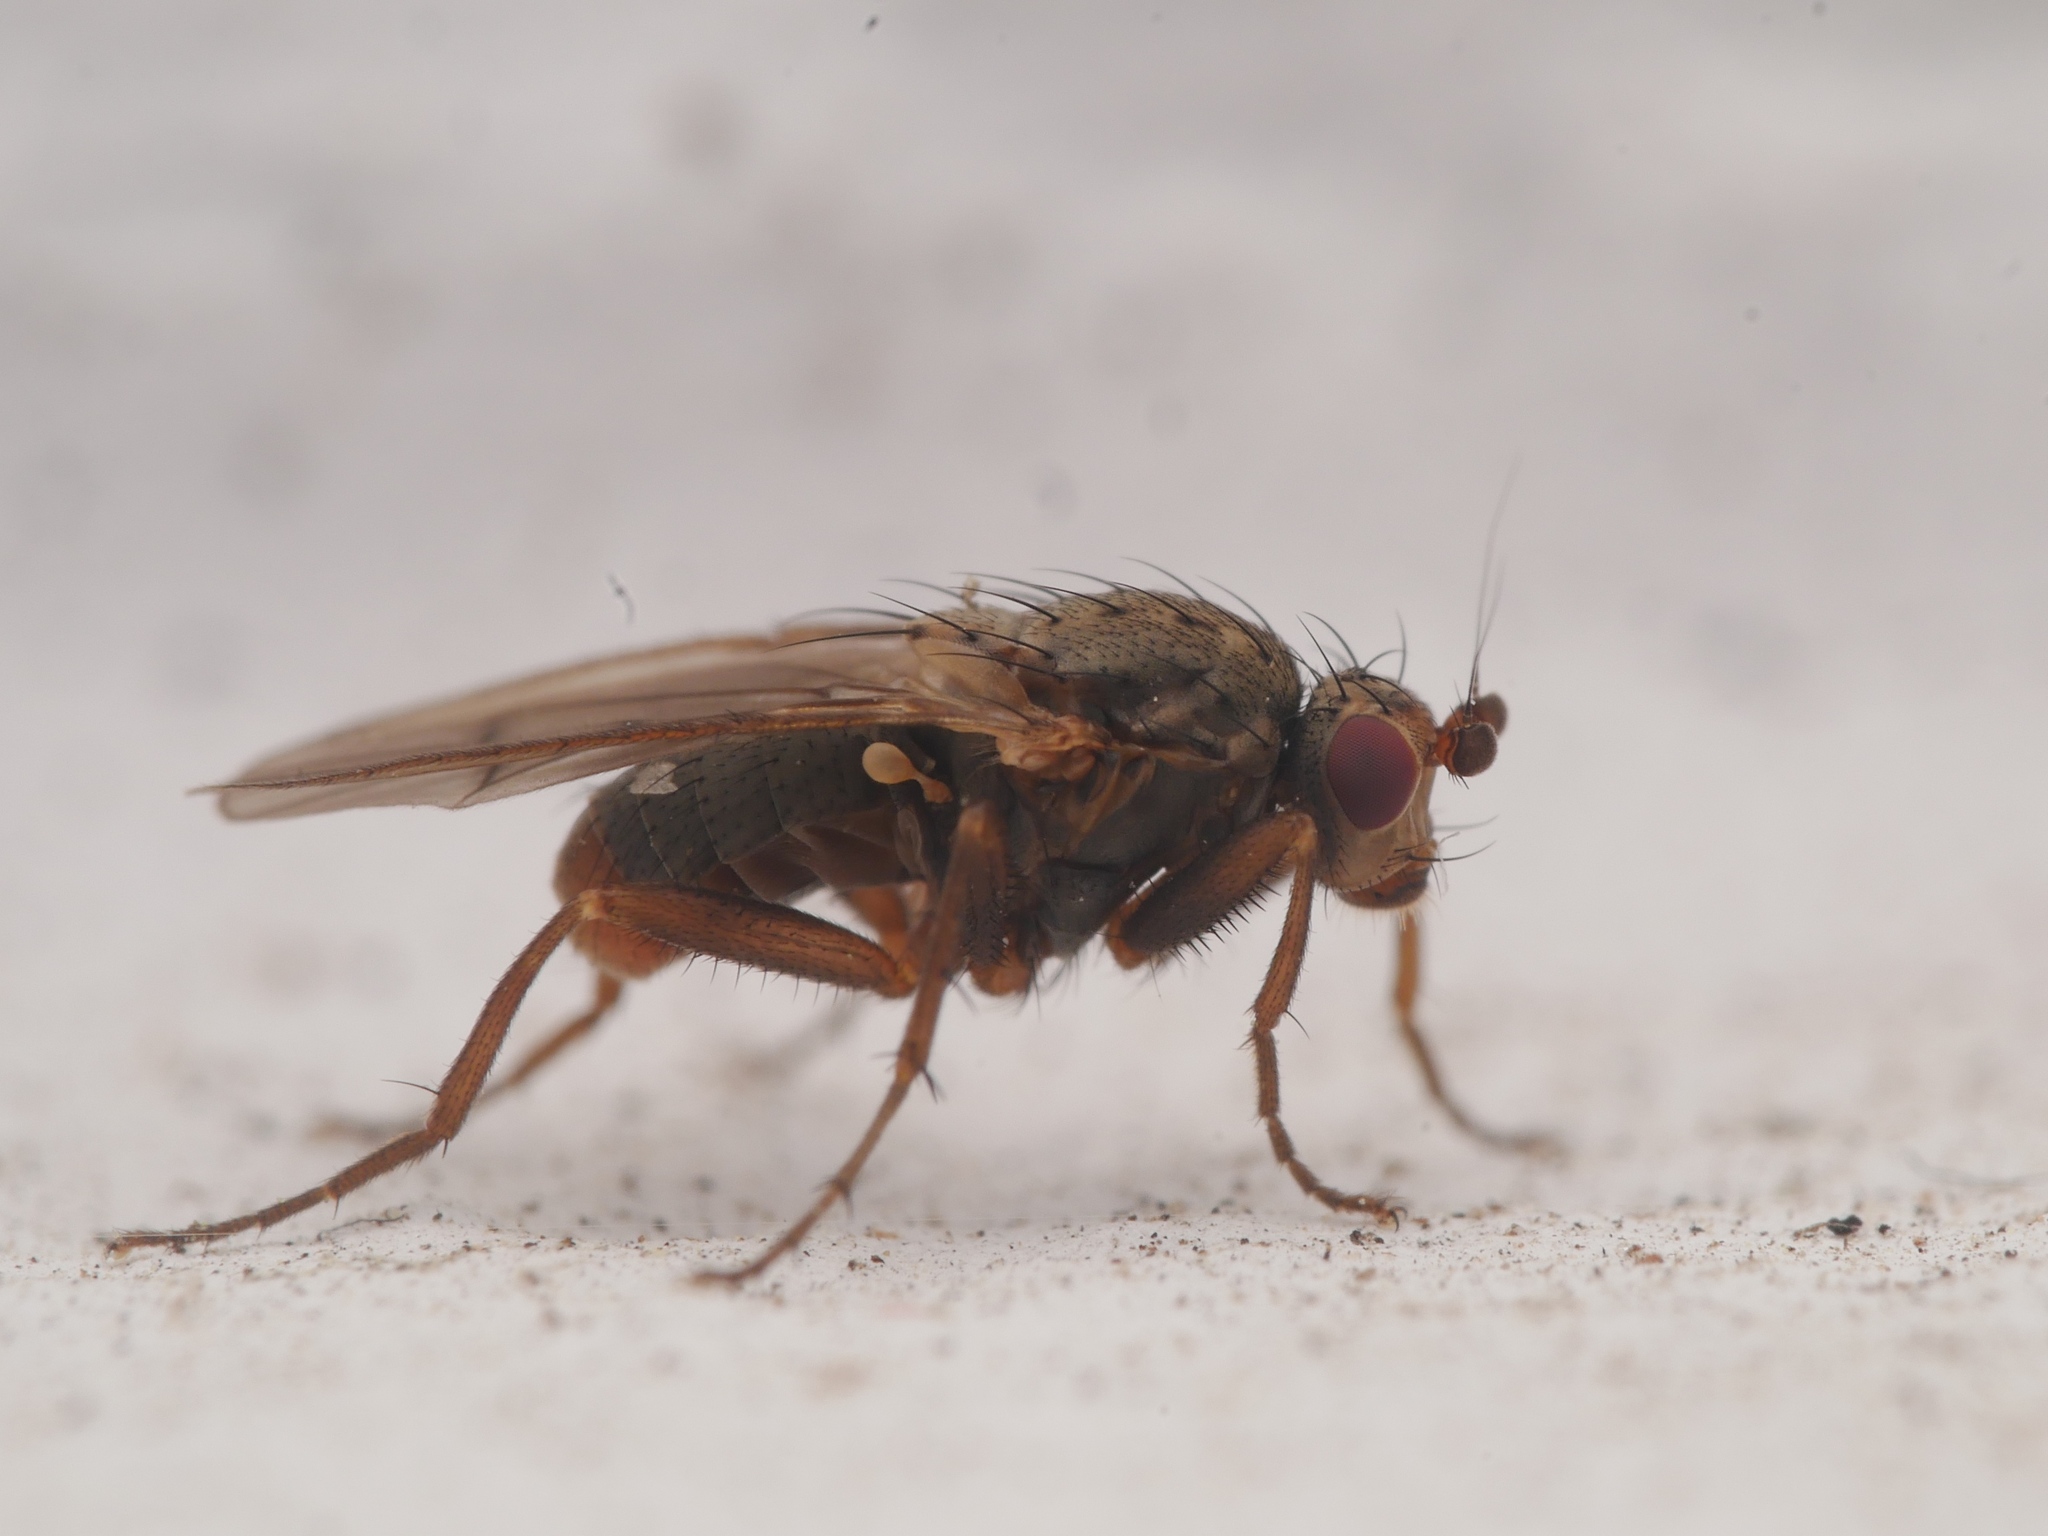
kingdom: Animalia
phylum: Arthropoda
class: Insecta
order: Diptera
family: Heleomyzidae
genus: Oecothea
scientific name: Oecothea fenestralis
